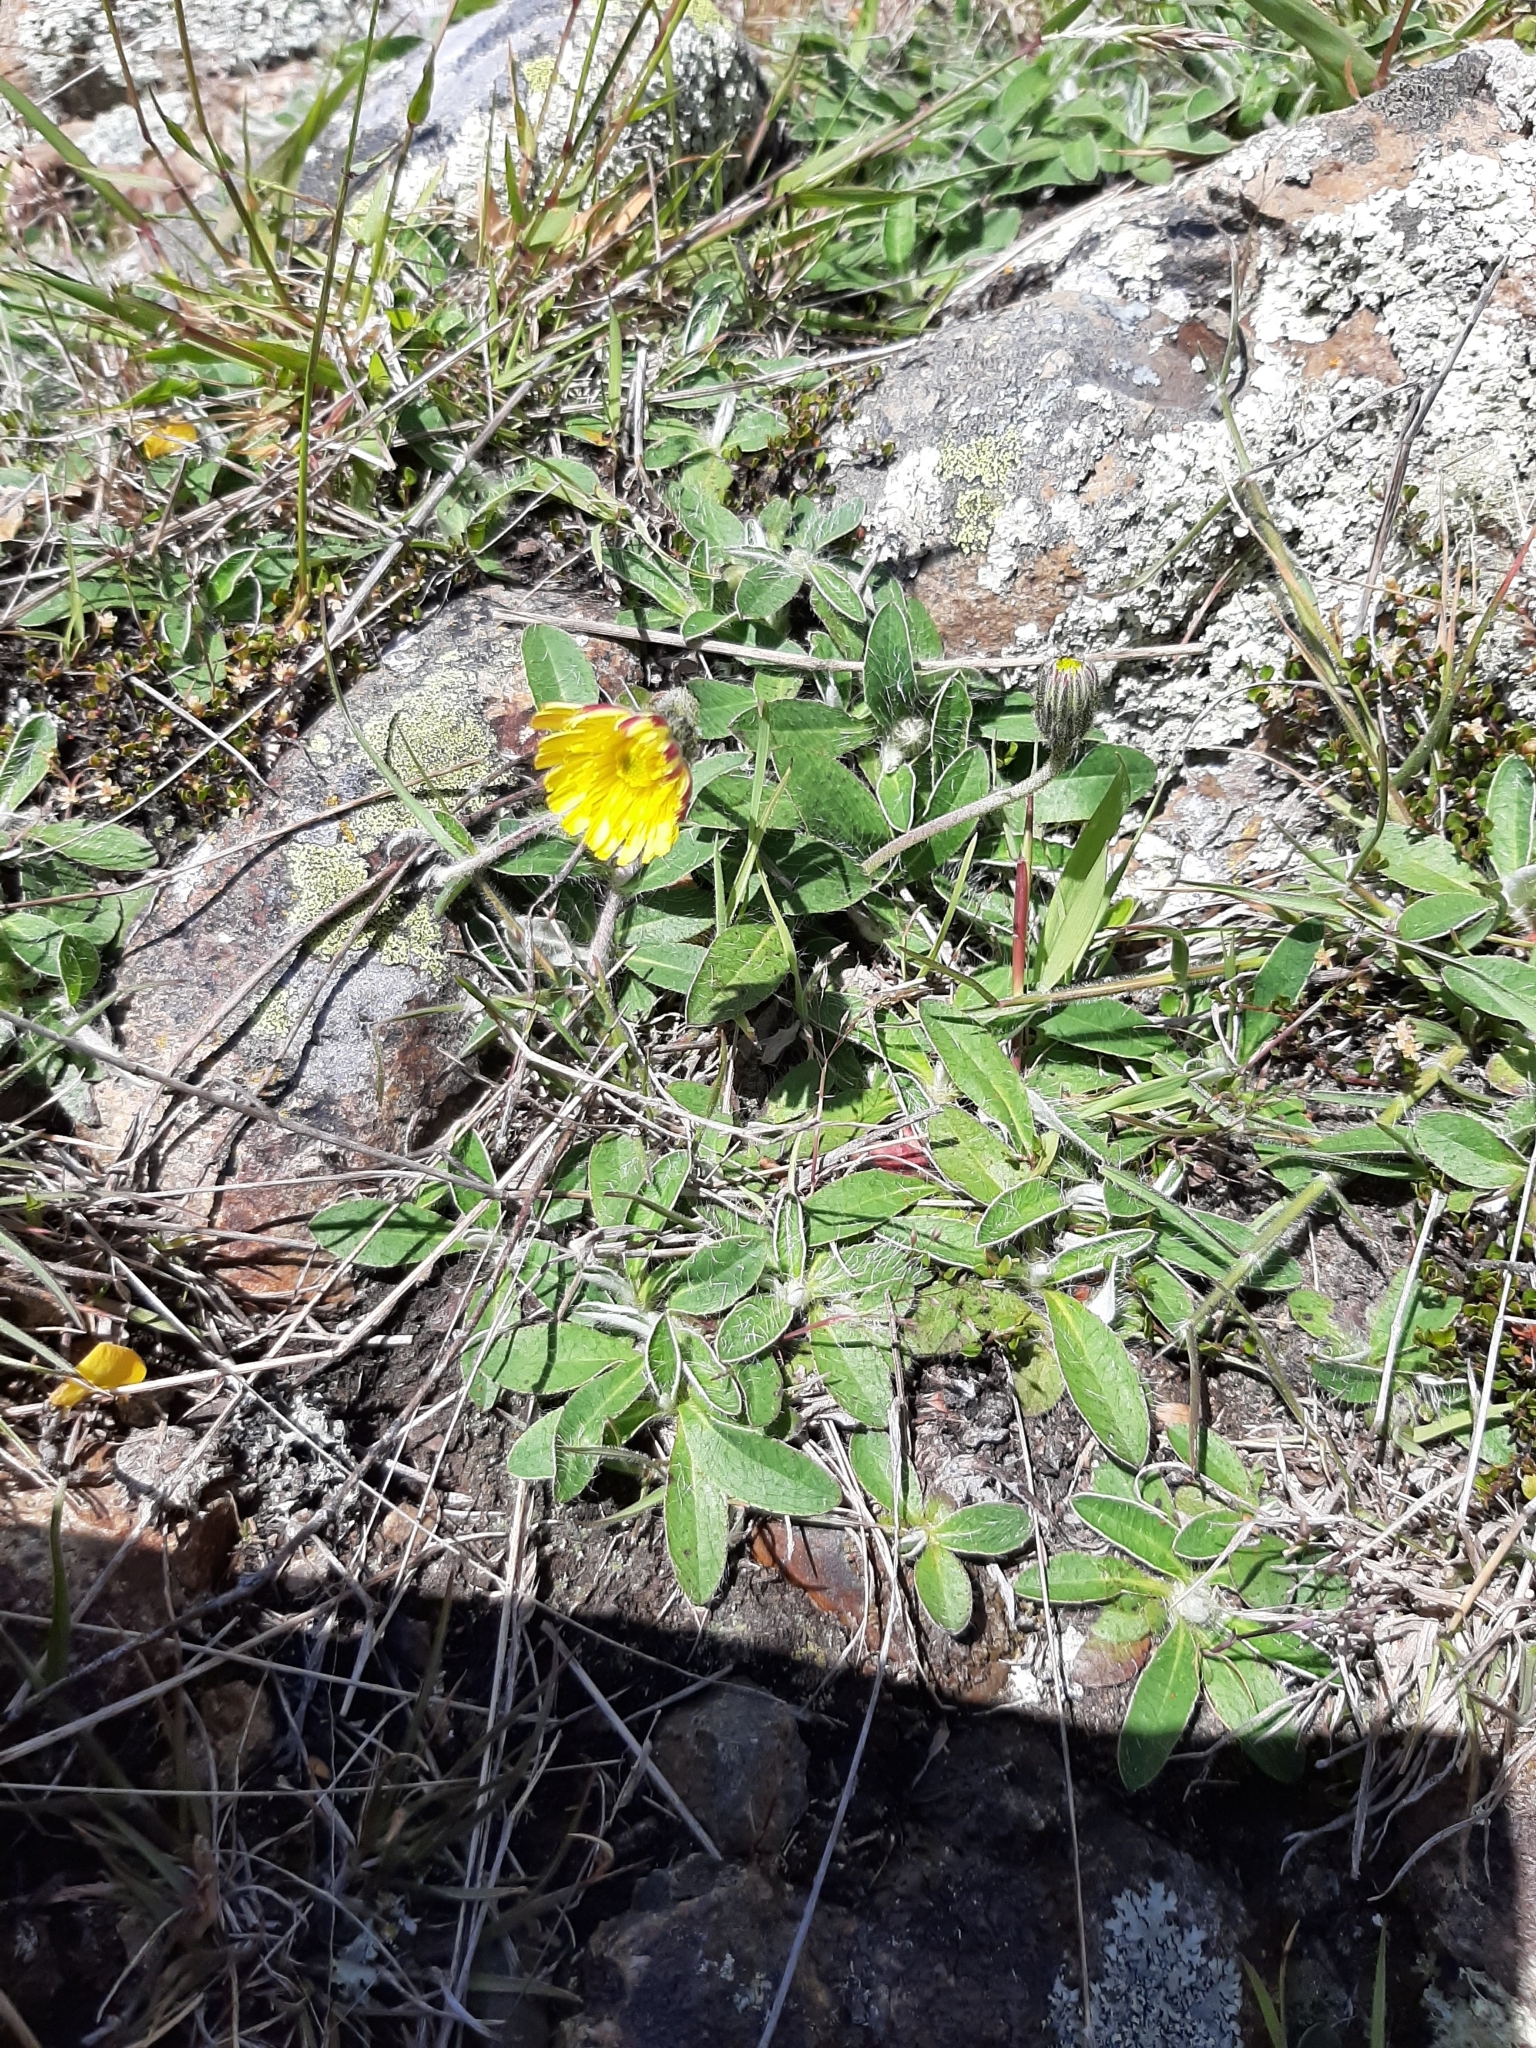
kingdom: Plantae
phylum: Tracheophyta
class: Magnoliopsida
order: Asterales
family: Asteraceae
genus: Pilosella
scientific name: Pilosella officinarum
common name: Mouse-ear hawkweed
